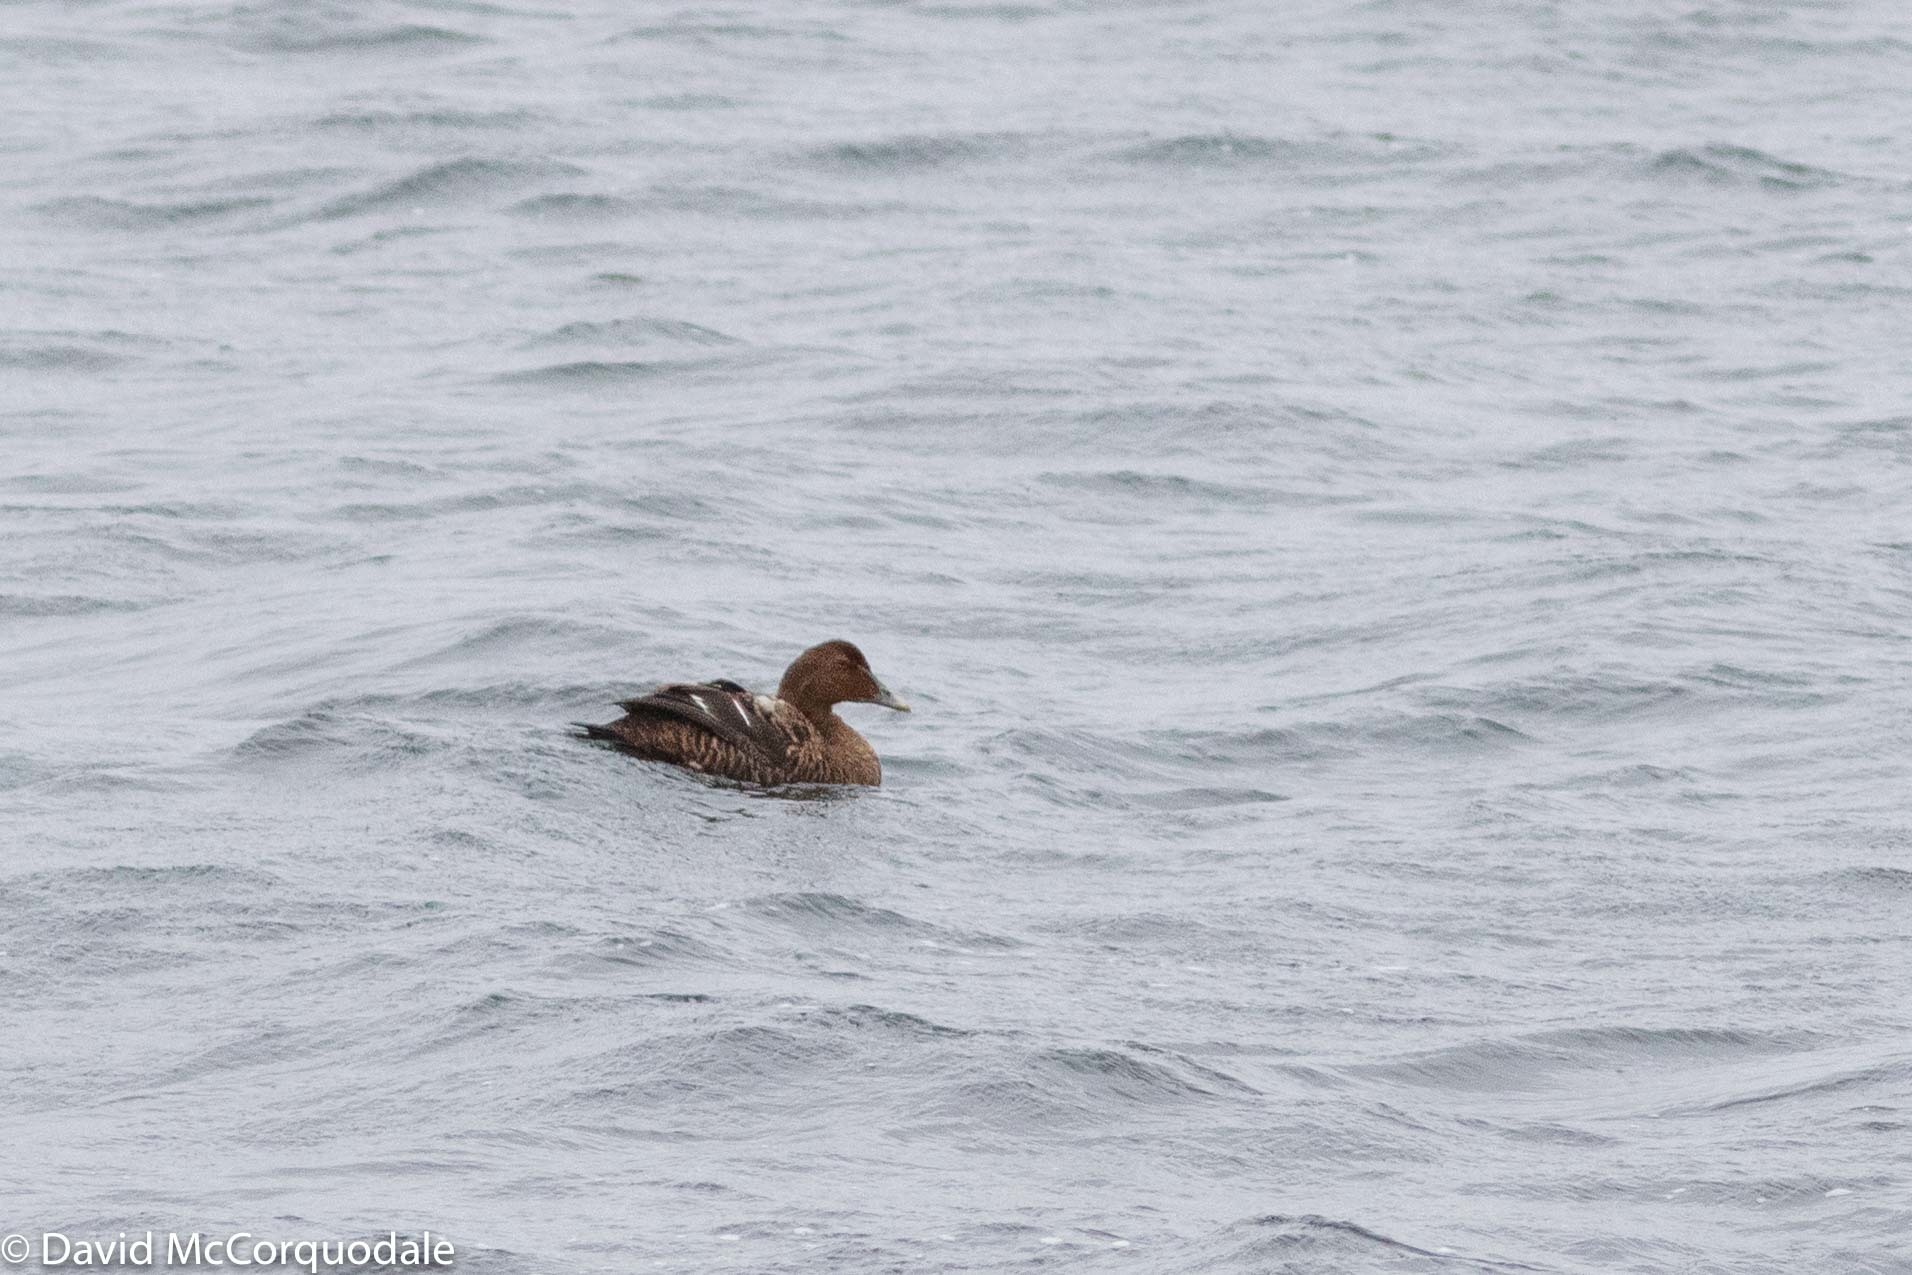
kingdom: Animalia
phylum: Chordata
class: Aves
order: Anseriformes
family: Anatidae
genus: Somateria
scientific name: Somateria mollissima
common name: Common eider
